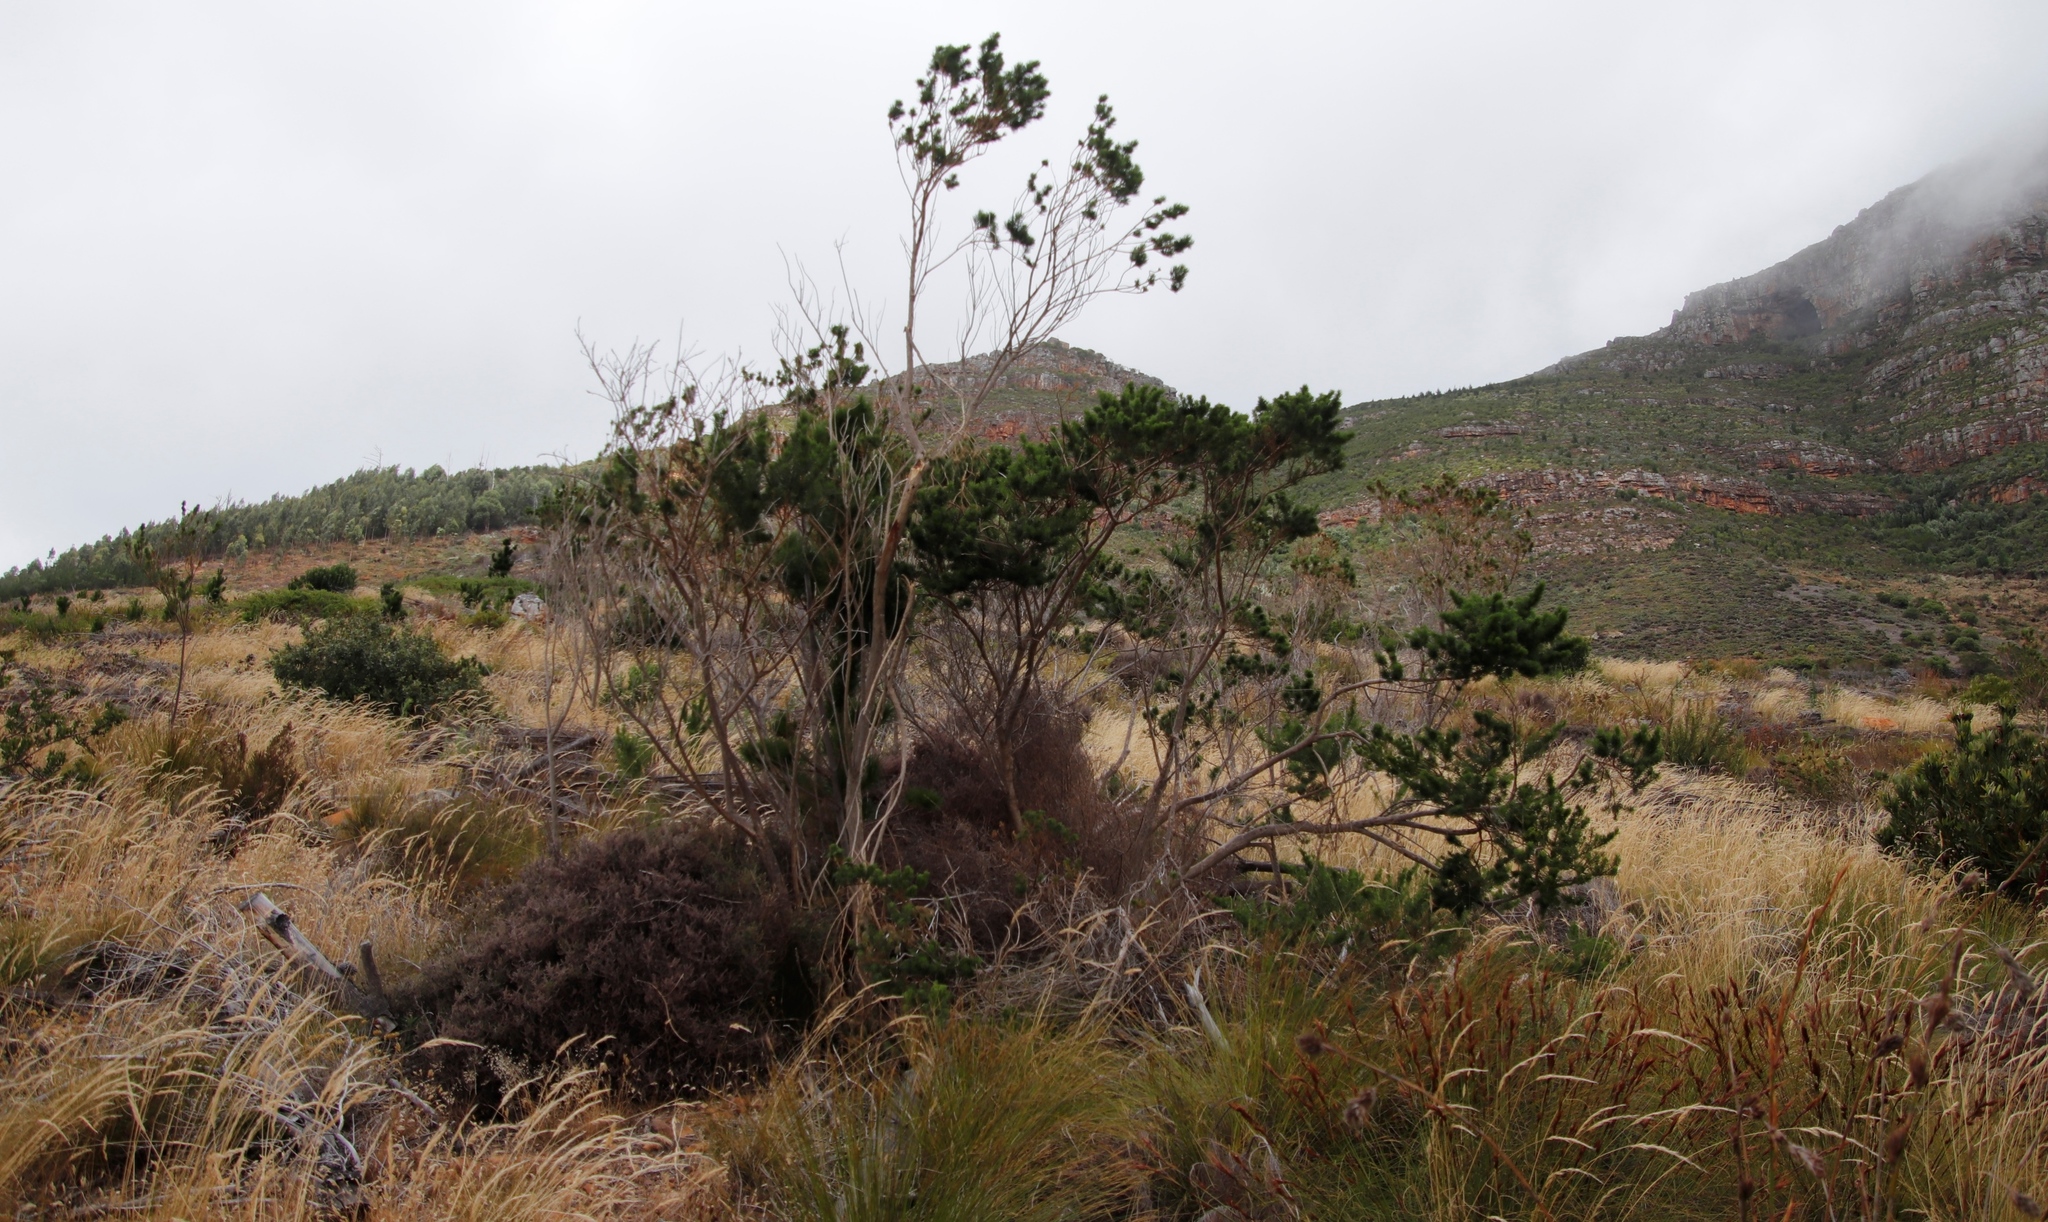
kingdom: Plantae
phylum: Tracheophyta
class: Magnoliopsida
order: Fabales
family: Fabaceae
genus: Psoralea
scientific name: Psoralea pinnata
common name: African scurfpea
